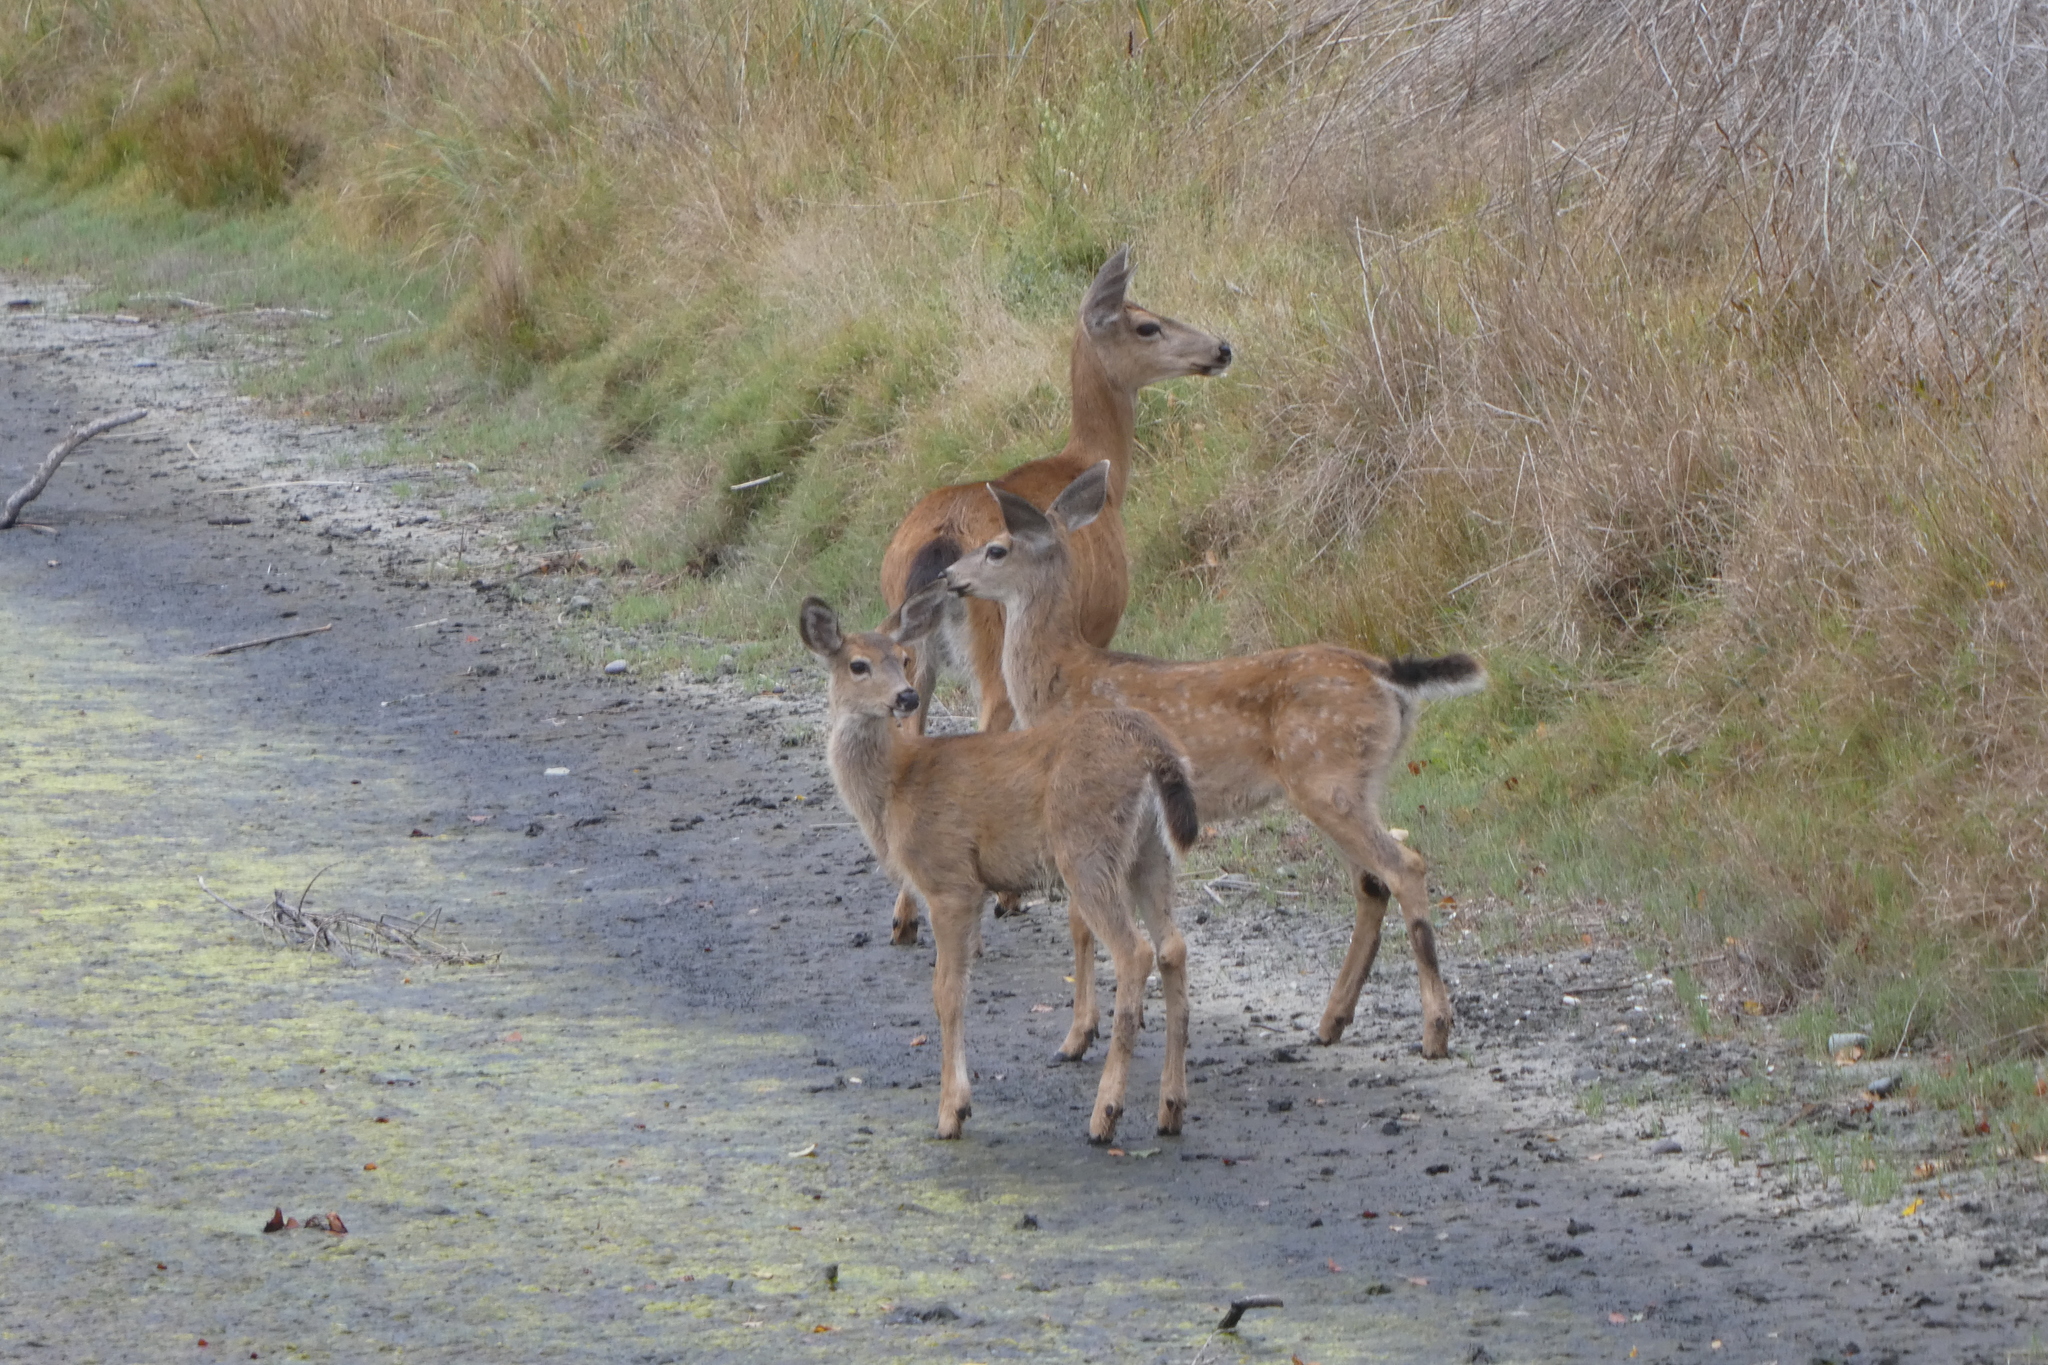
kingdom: Animalia
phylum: Chordata
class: Mammalia
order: Artiodactyla
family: Cervidae
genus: Odocoileus
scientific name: Odocoileus hemionus
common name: Mule deer
